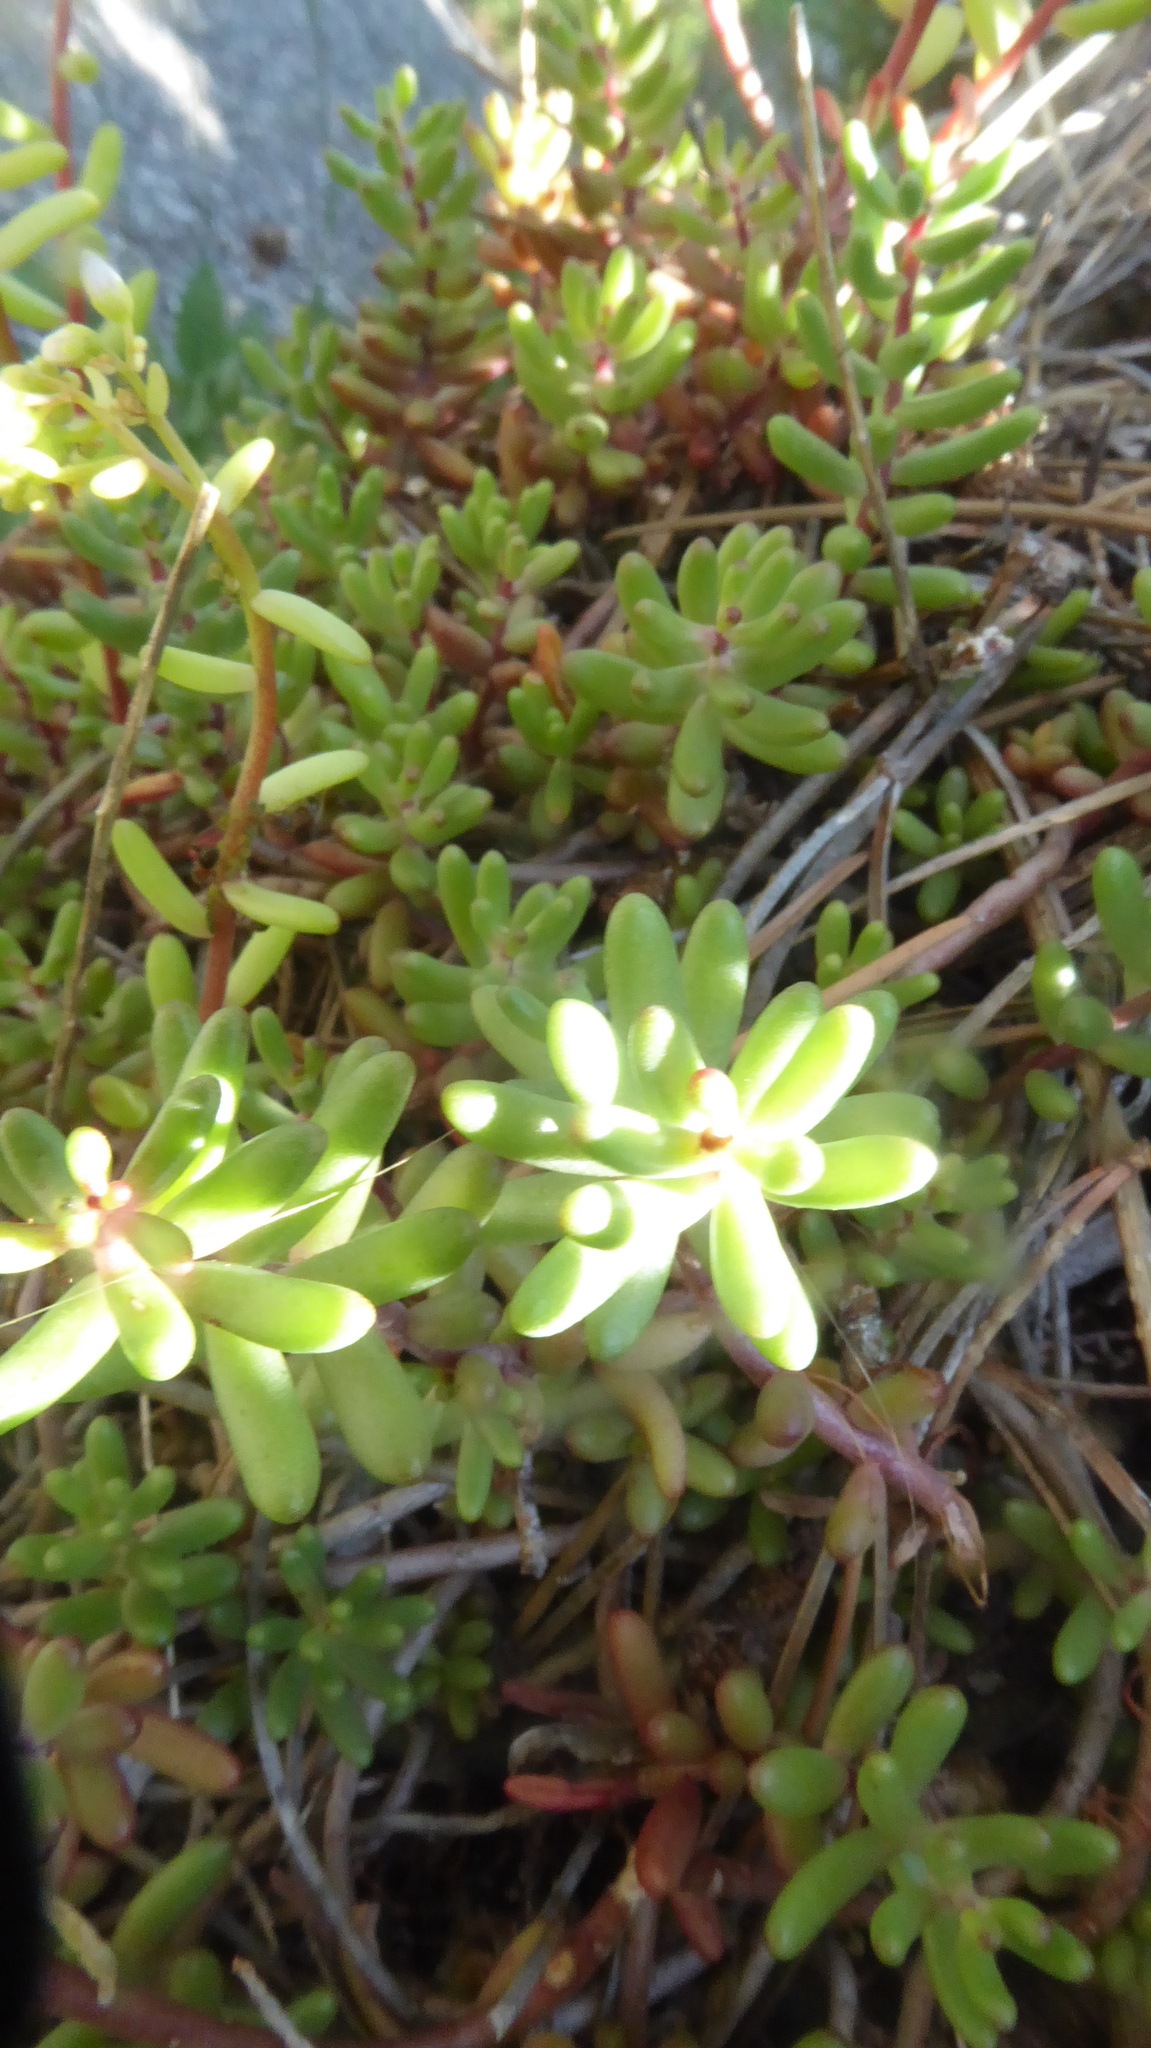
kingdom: Plantae
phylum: Tracheophyta
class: Magnoliopsida
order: Saxifragales
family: Crassulaceae
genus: Sedum
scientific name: Sedum album
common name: White stonecrop
